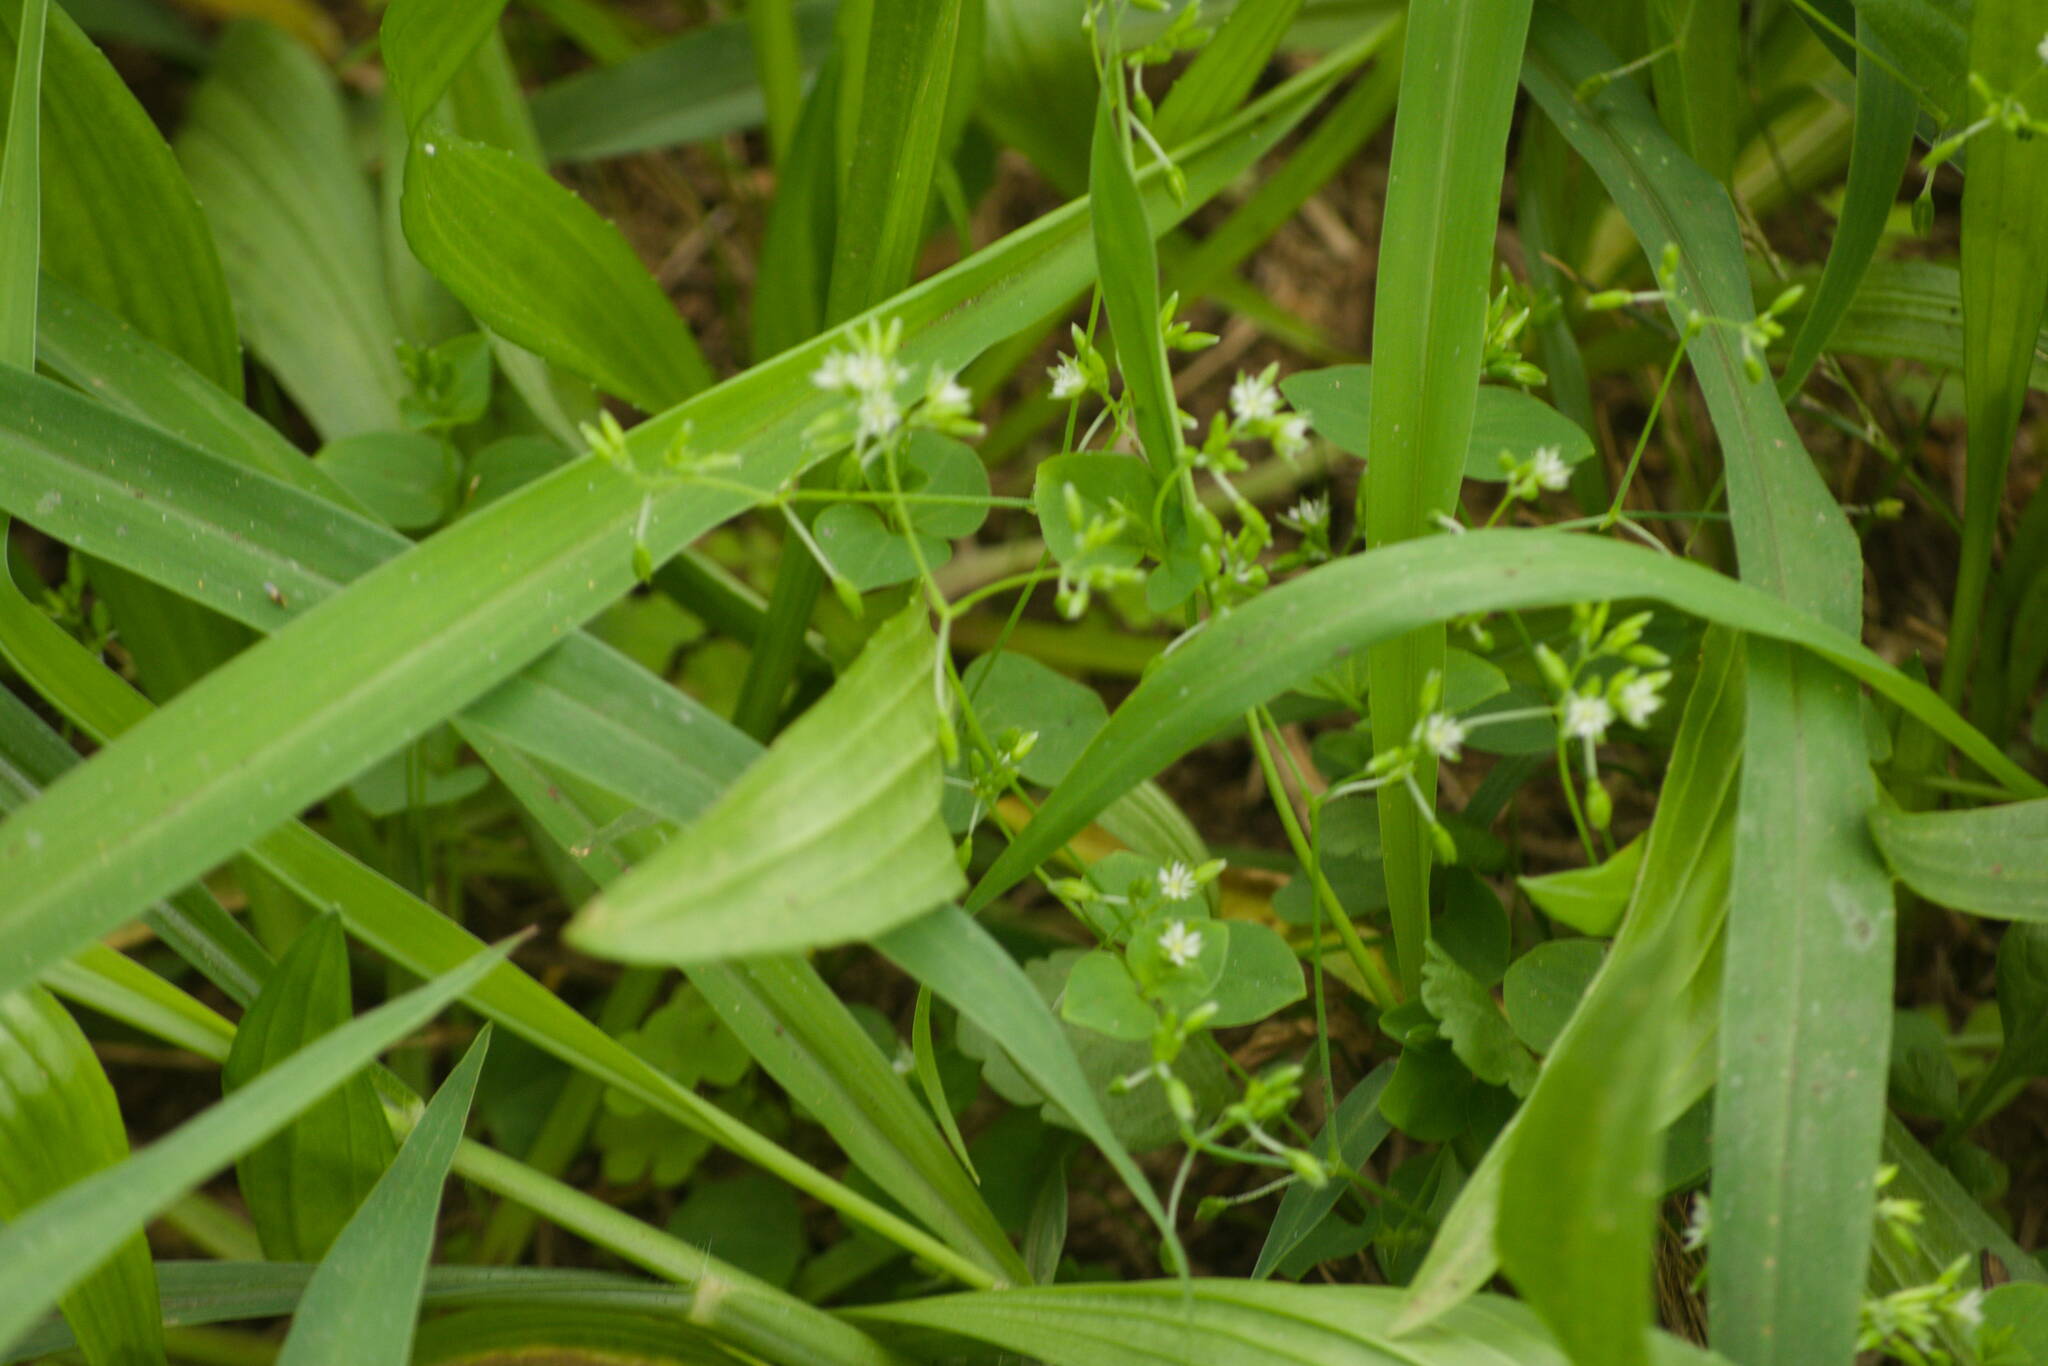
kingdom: Plantae
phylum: Tracheophyta
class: Magnoliopsida
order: Caryophyllales
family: Caryophyllaceae
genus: Drymaria
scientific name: Drymaria cordata
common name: Whitesnow
